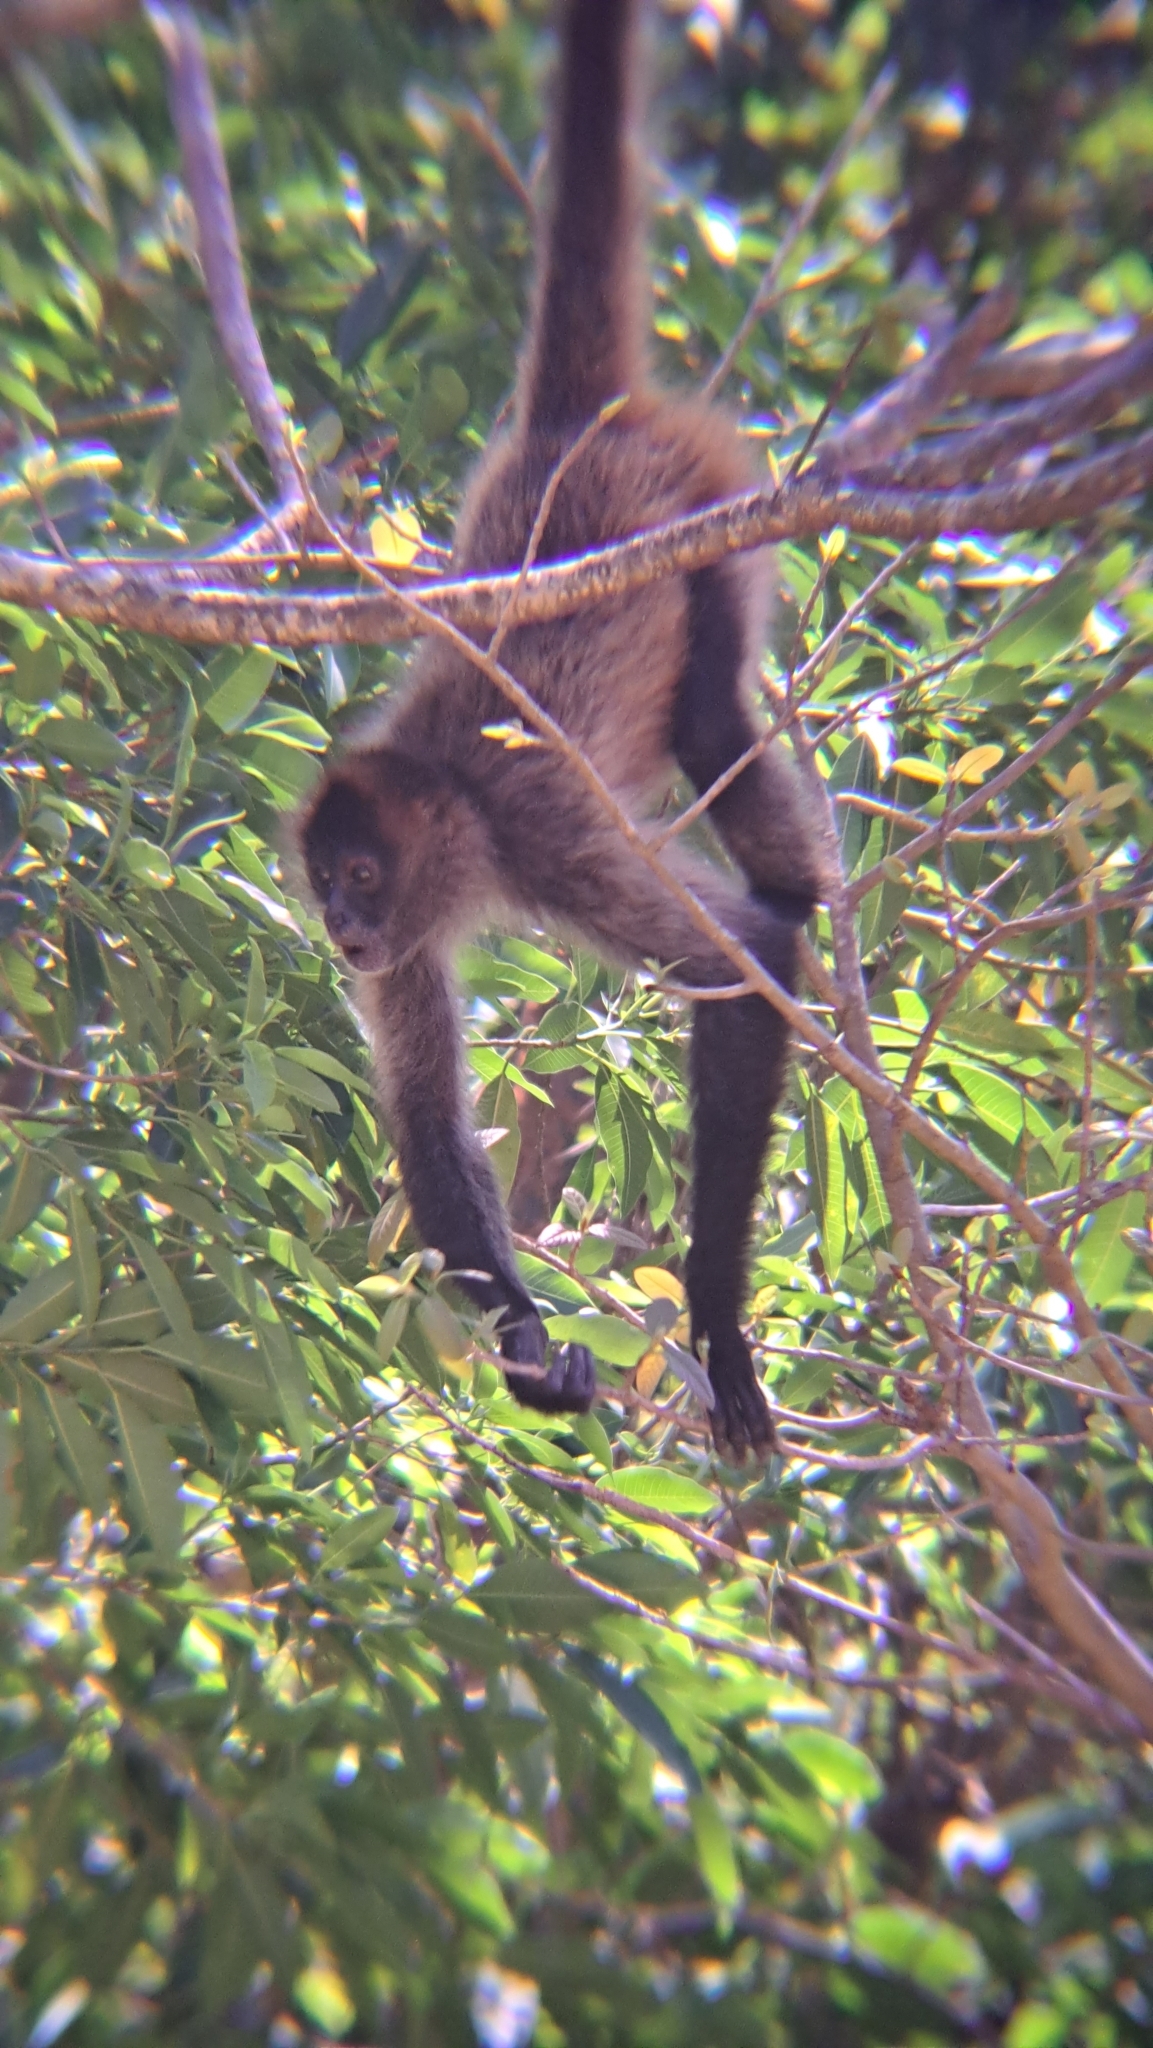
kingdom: Animalia
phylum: Chordata
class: Mammalia
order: Primates
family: Atelidae
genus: Ateles
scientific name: Ateles geoffroyi
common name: Black-handed spider monkey
